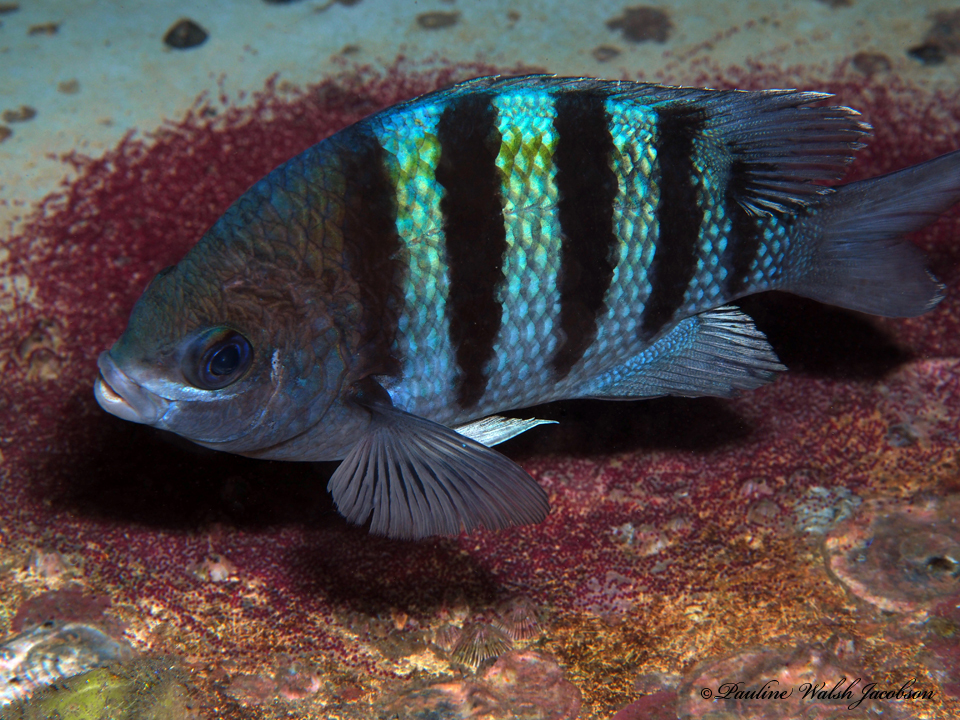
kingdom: Animalia
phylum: Chordata
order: Perciformes
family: Pomacentridae
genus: Abudefduf
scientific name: Abudefduf saxatilis
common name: Sergeant major
